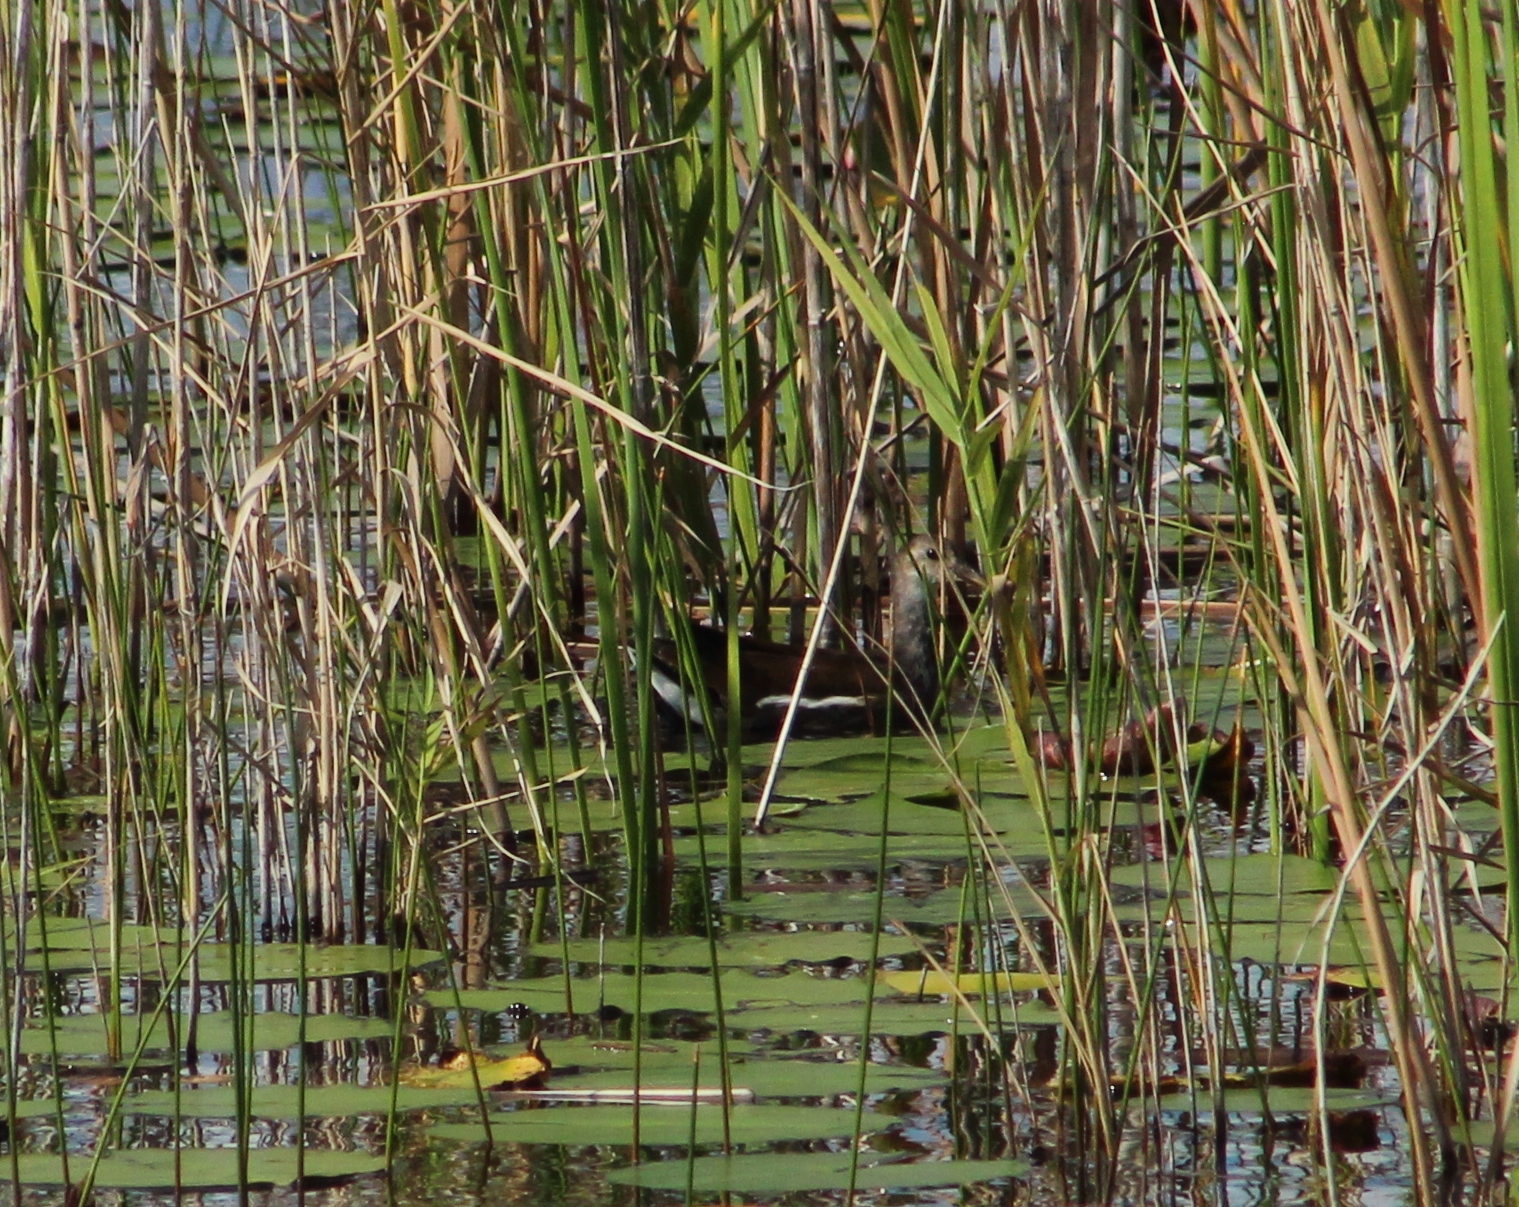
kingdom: Animalia
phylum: Chordata
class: Aves
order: Gruiformes
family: Rallidae
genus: Gallinula
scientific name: Gallinula chloropus
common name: Common moorhen
